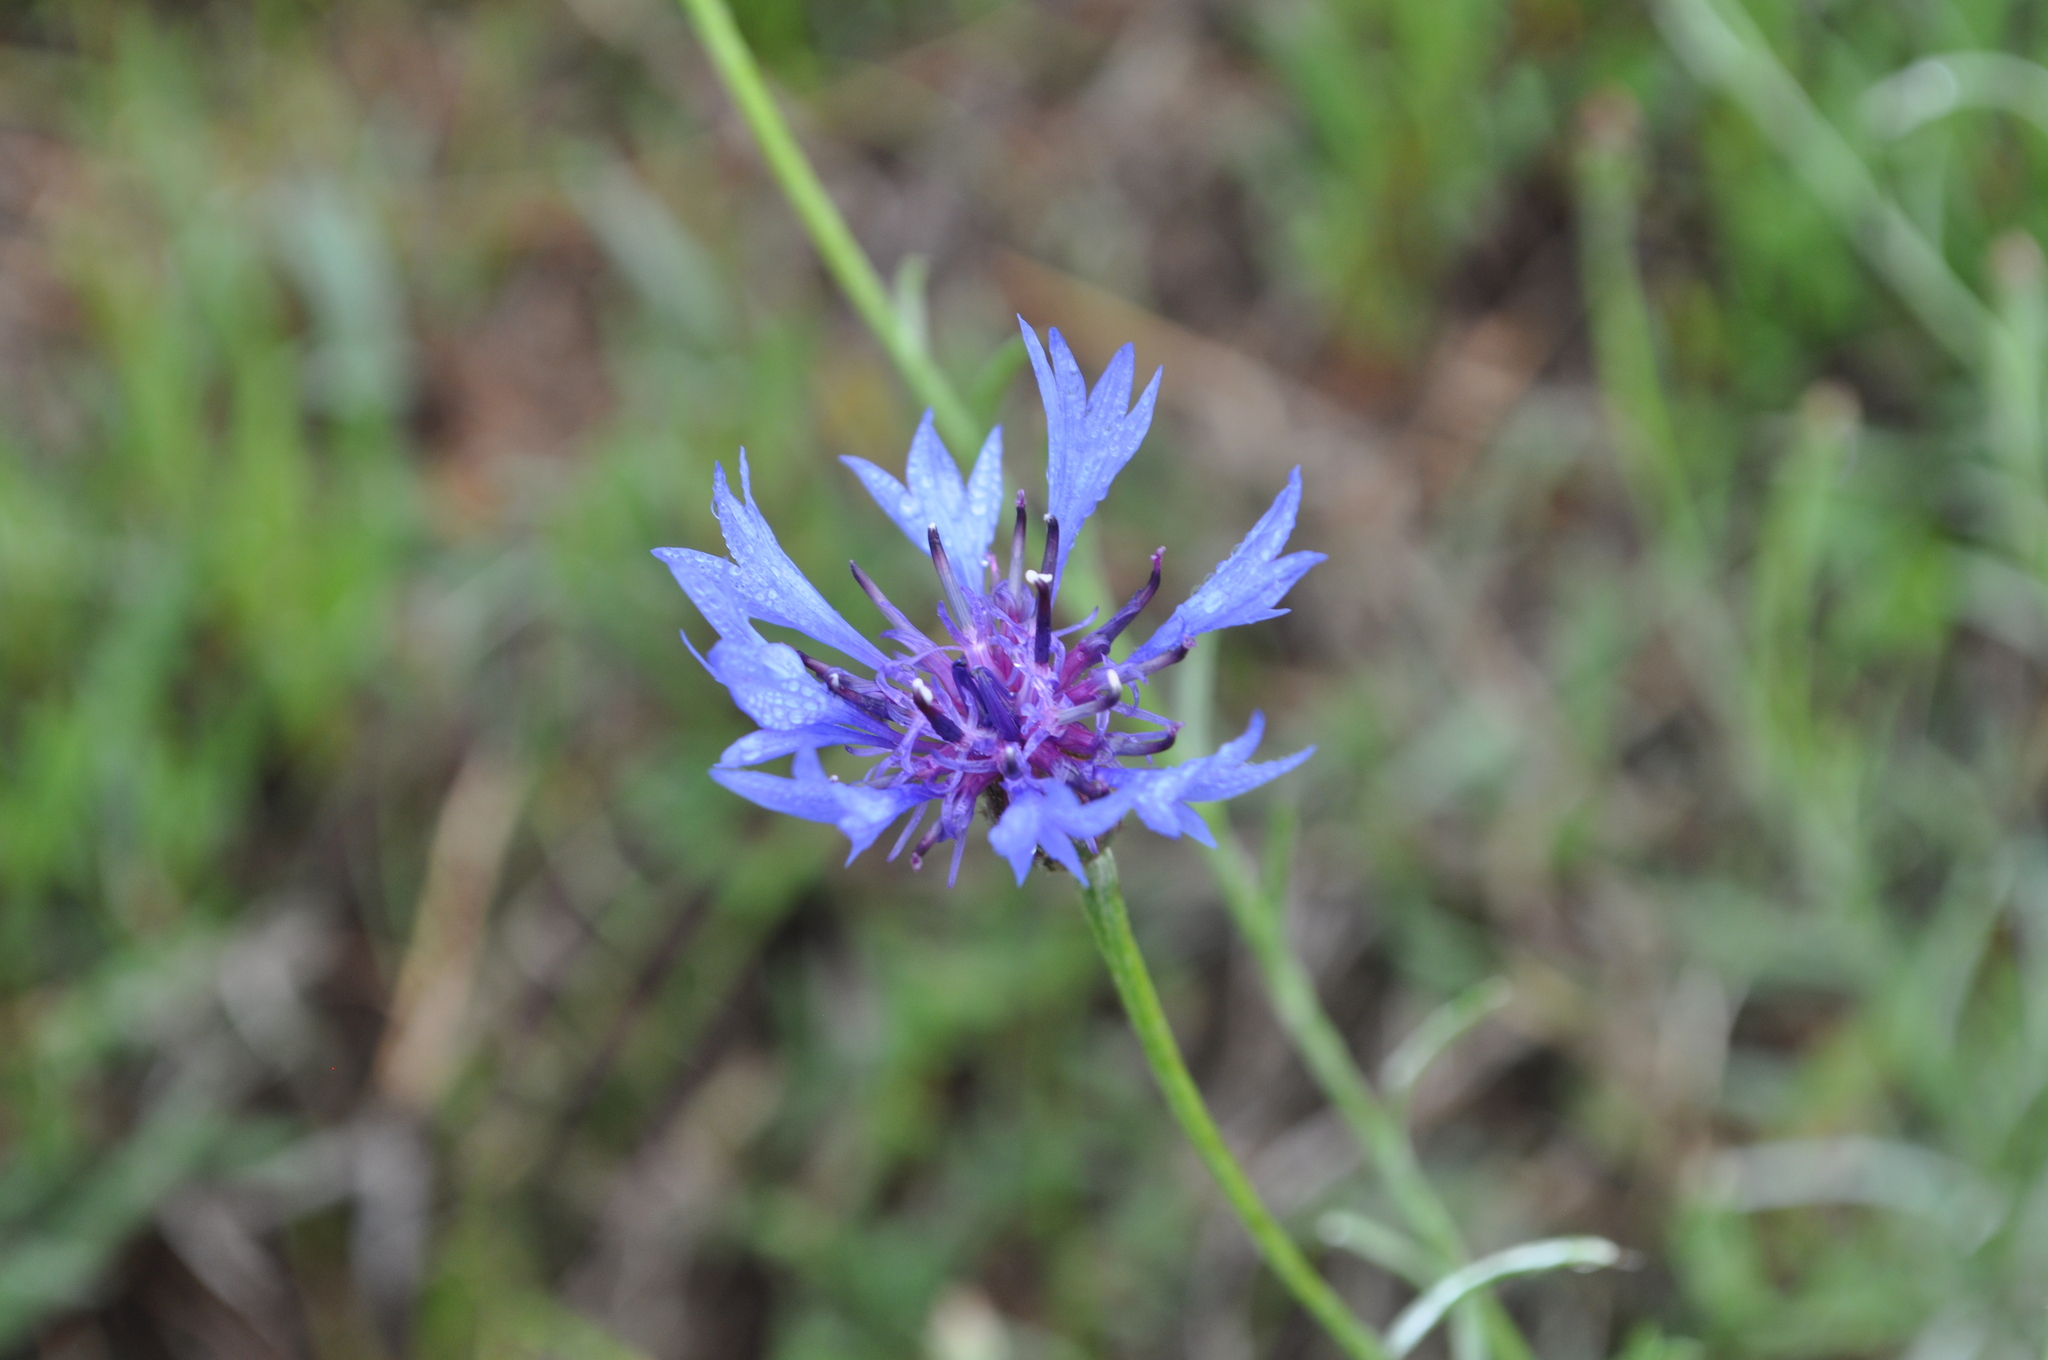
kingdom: Plantae
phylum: Tracheophyta
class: Magnoliopsida
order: Asterales
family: Asteraceae
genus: Centaurea
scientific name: Centaurea cyanus
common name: Cornflower
